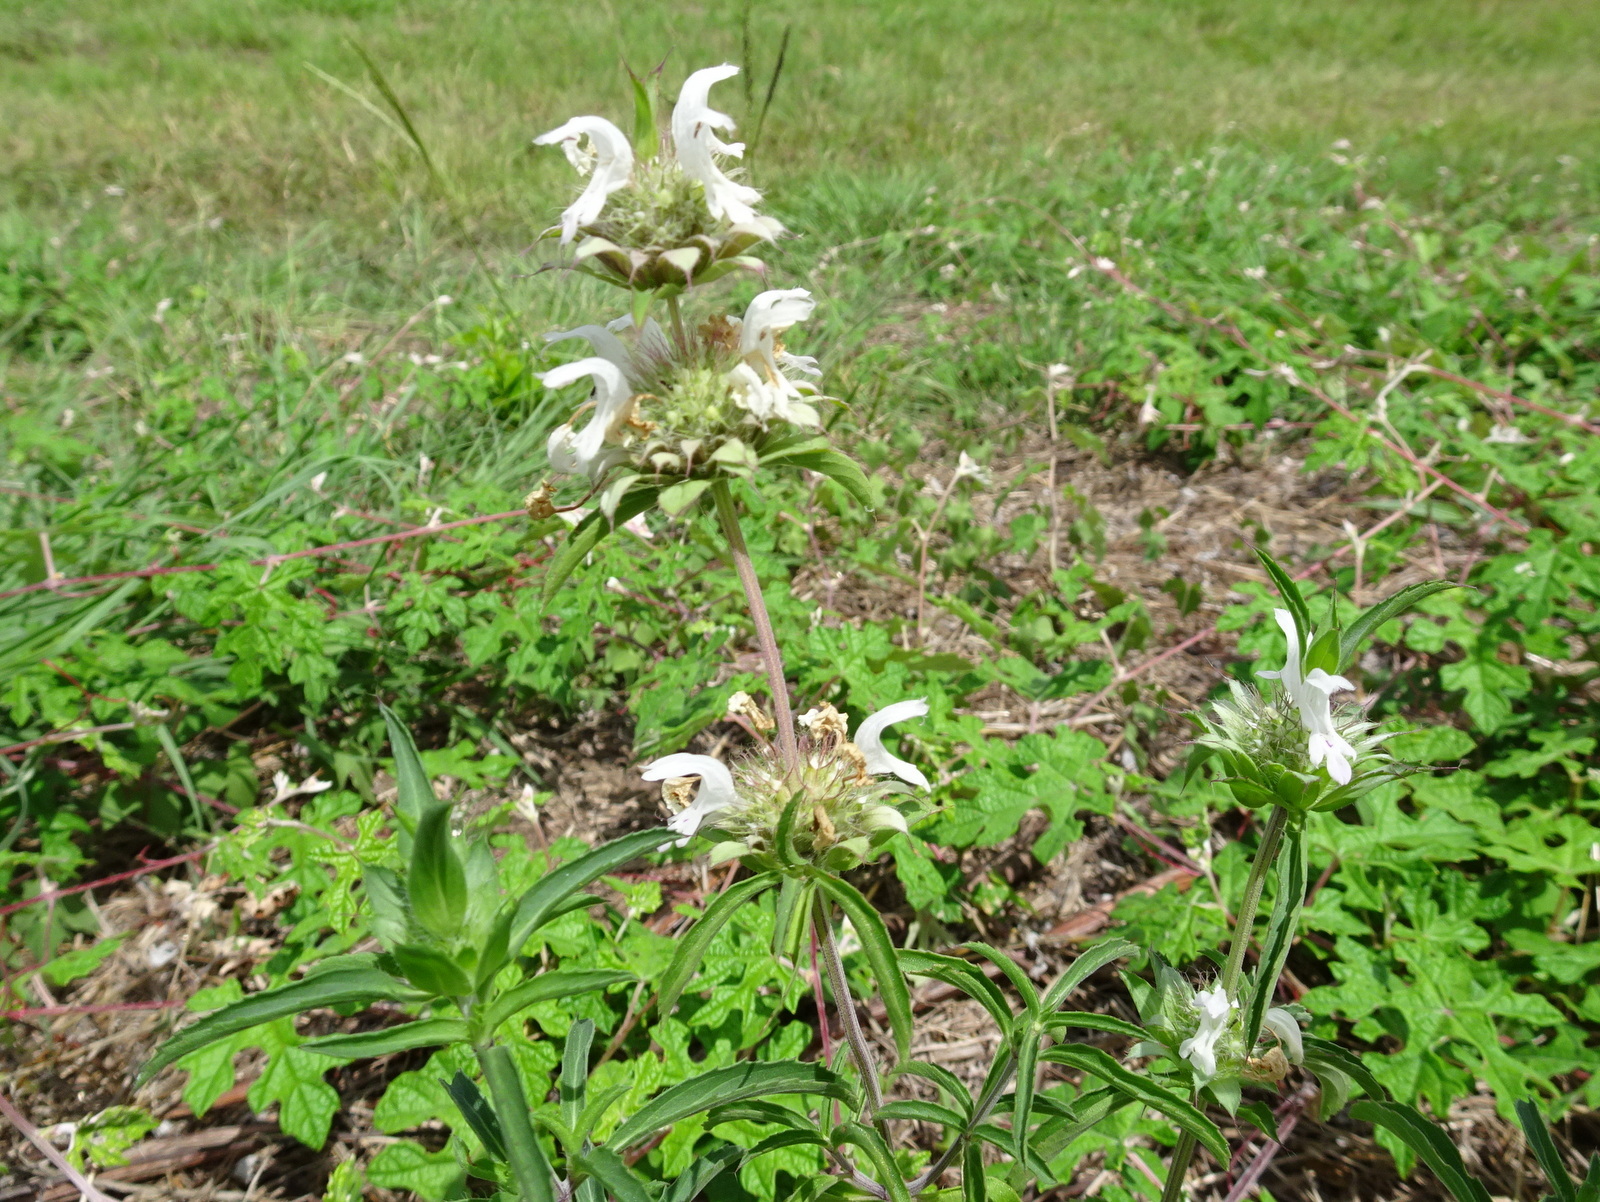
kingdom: Plantae
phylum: Tracheophyta
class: Magnoliopsida
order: Lamiales
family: Lamiaceae
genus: Monarda
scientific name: Monarda citriodora
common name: Lemon beebalm
